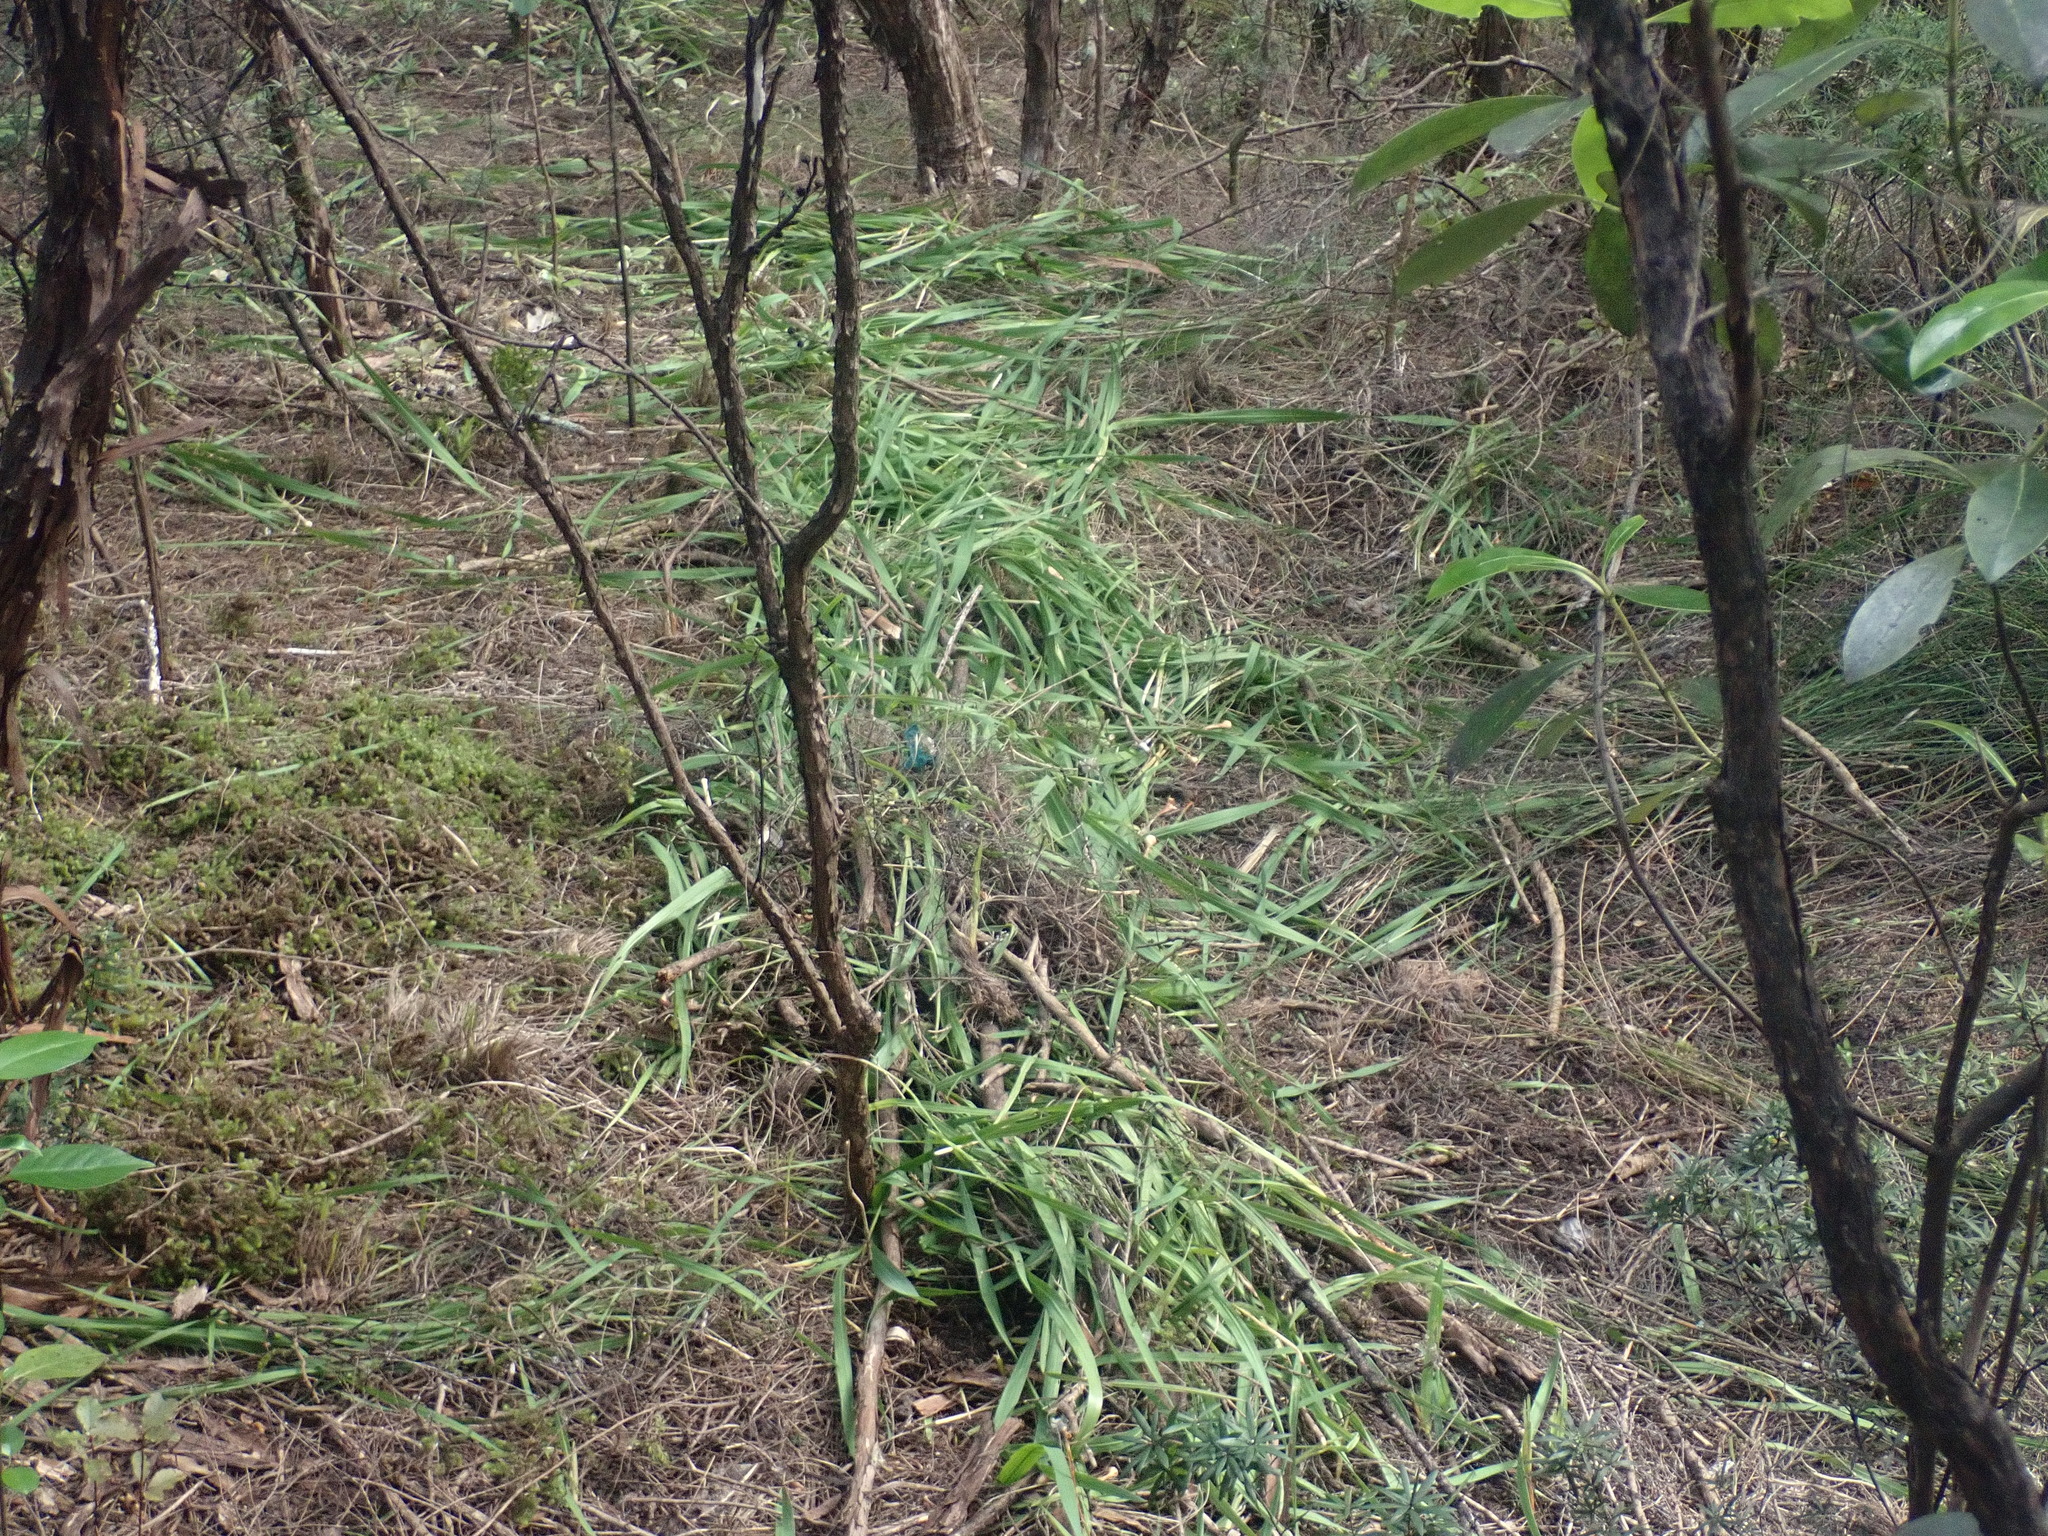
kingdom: Plantae
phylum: Bryophyta
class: Bryopsida
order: Ptychomniales
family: Ptychomniaceae
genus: Ptychomnion
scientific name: Ptychomnion aciculare
